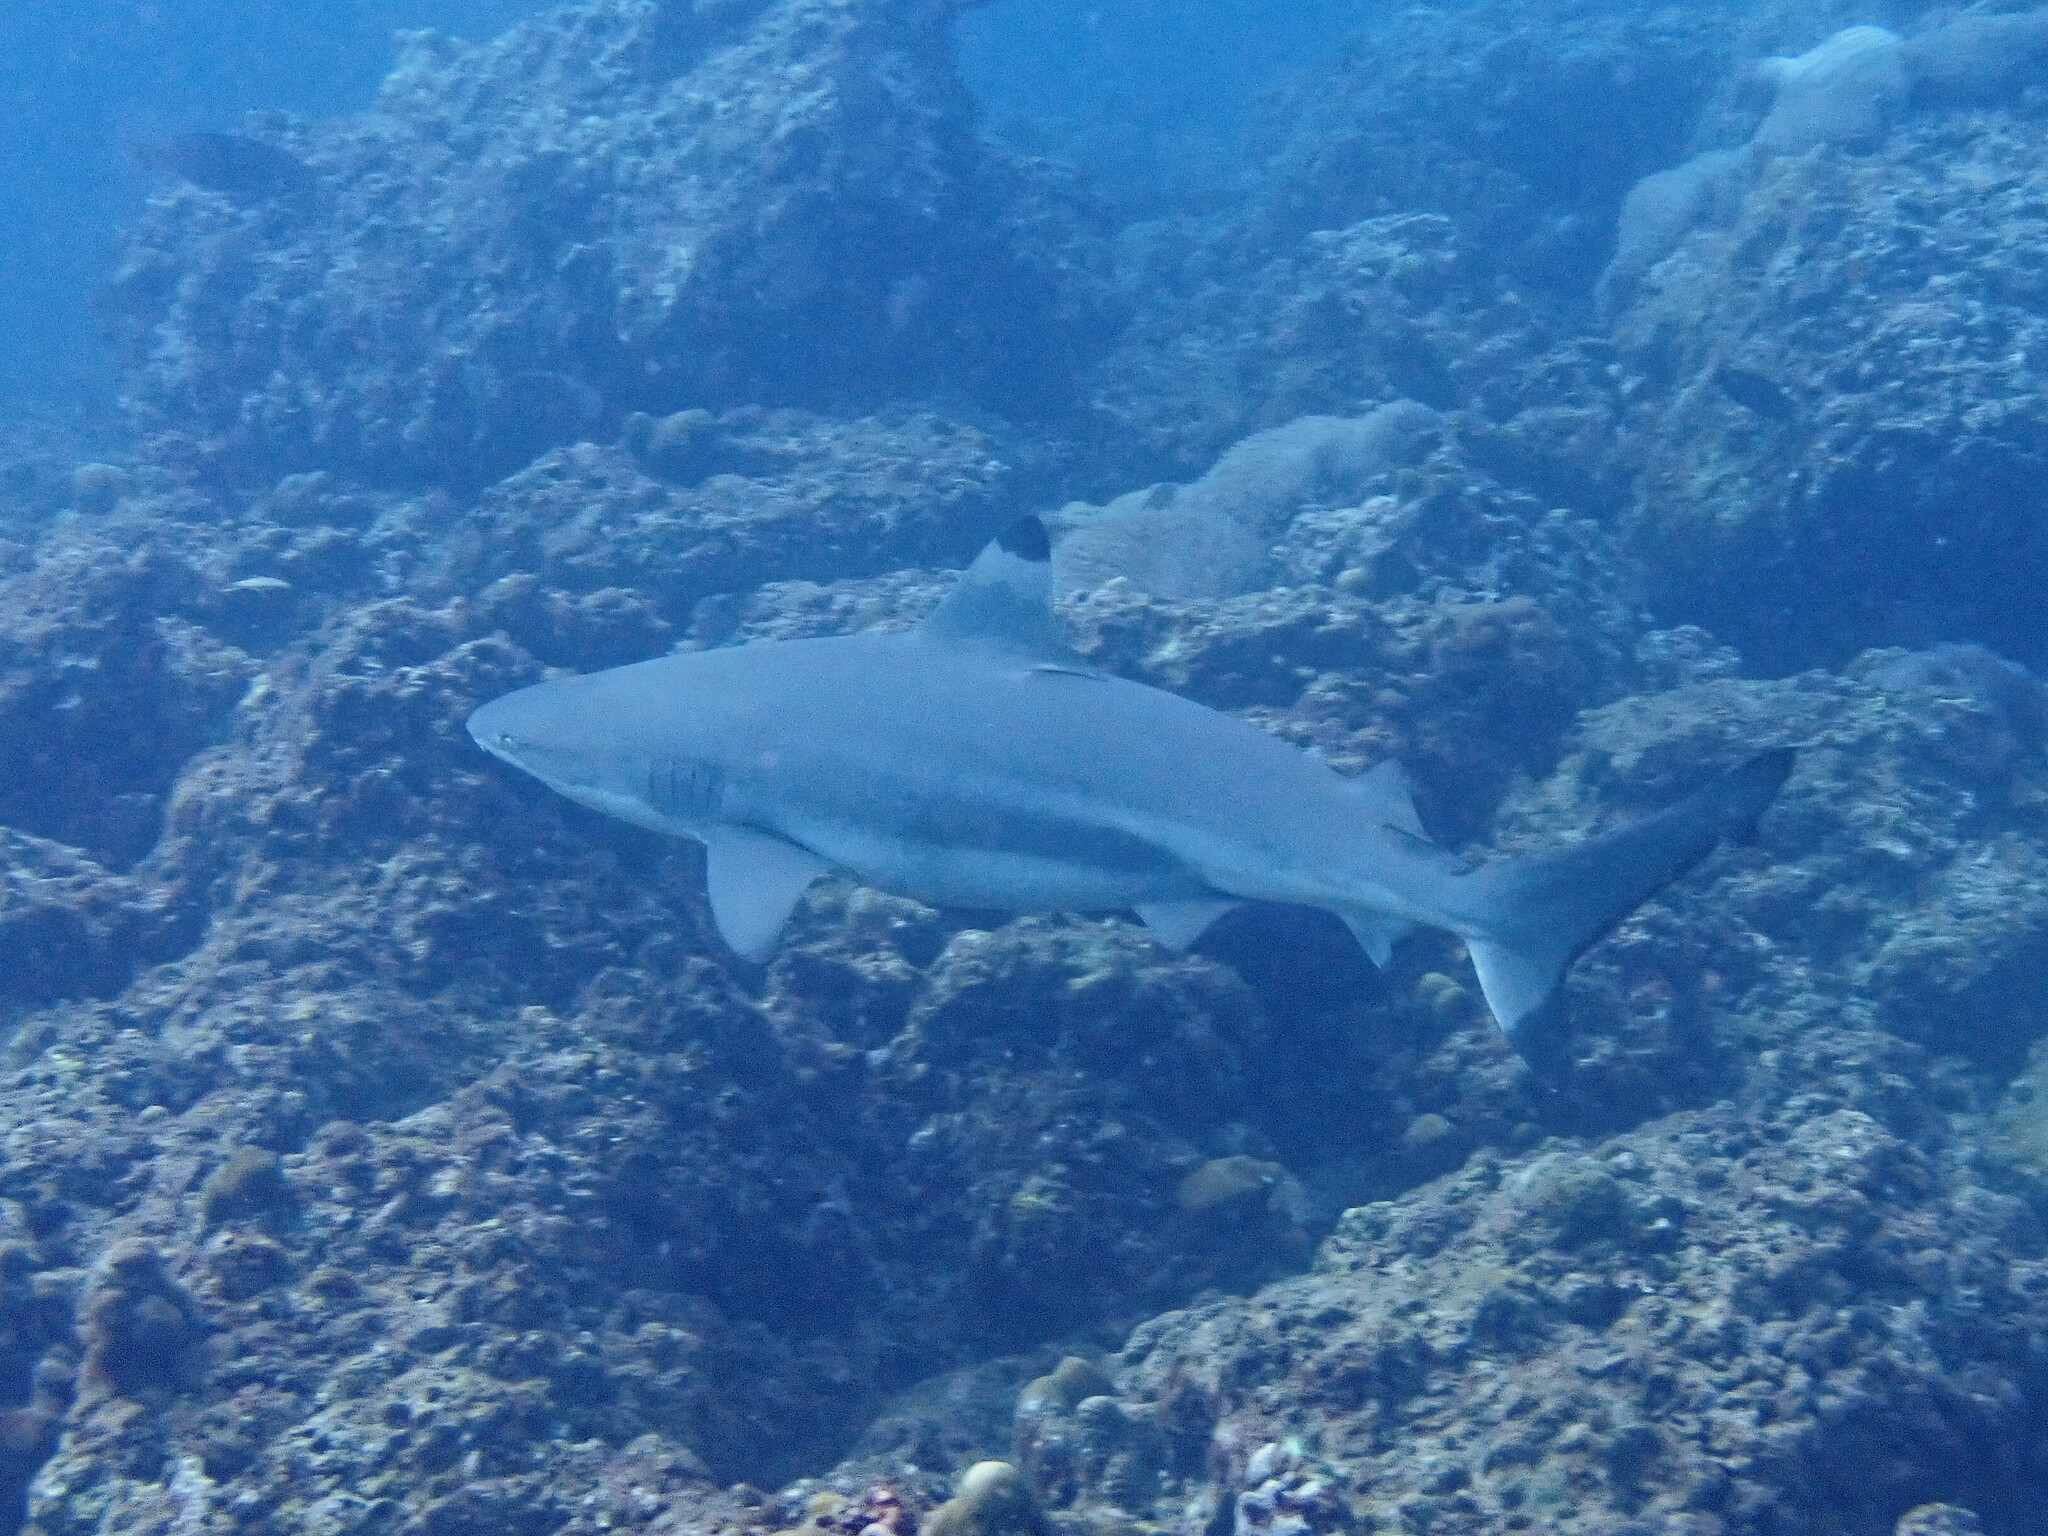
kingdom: Animalia
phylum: Chordata
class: Elasmobranchii
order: Carcharhiniformes
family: Carcharhinidae
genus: Carcharhinus
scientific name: Carcharhinus melanopterus
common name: Blacktip reef shark
